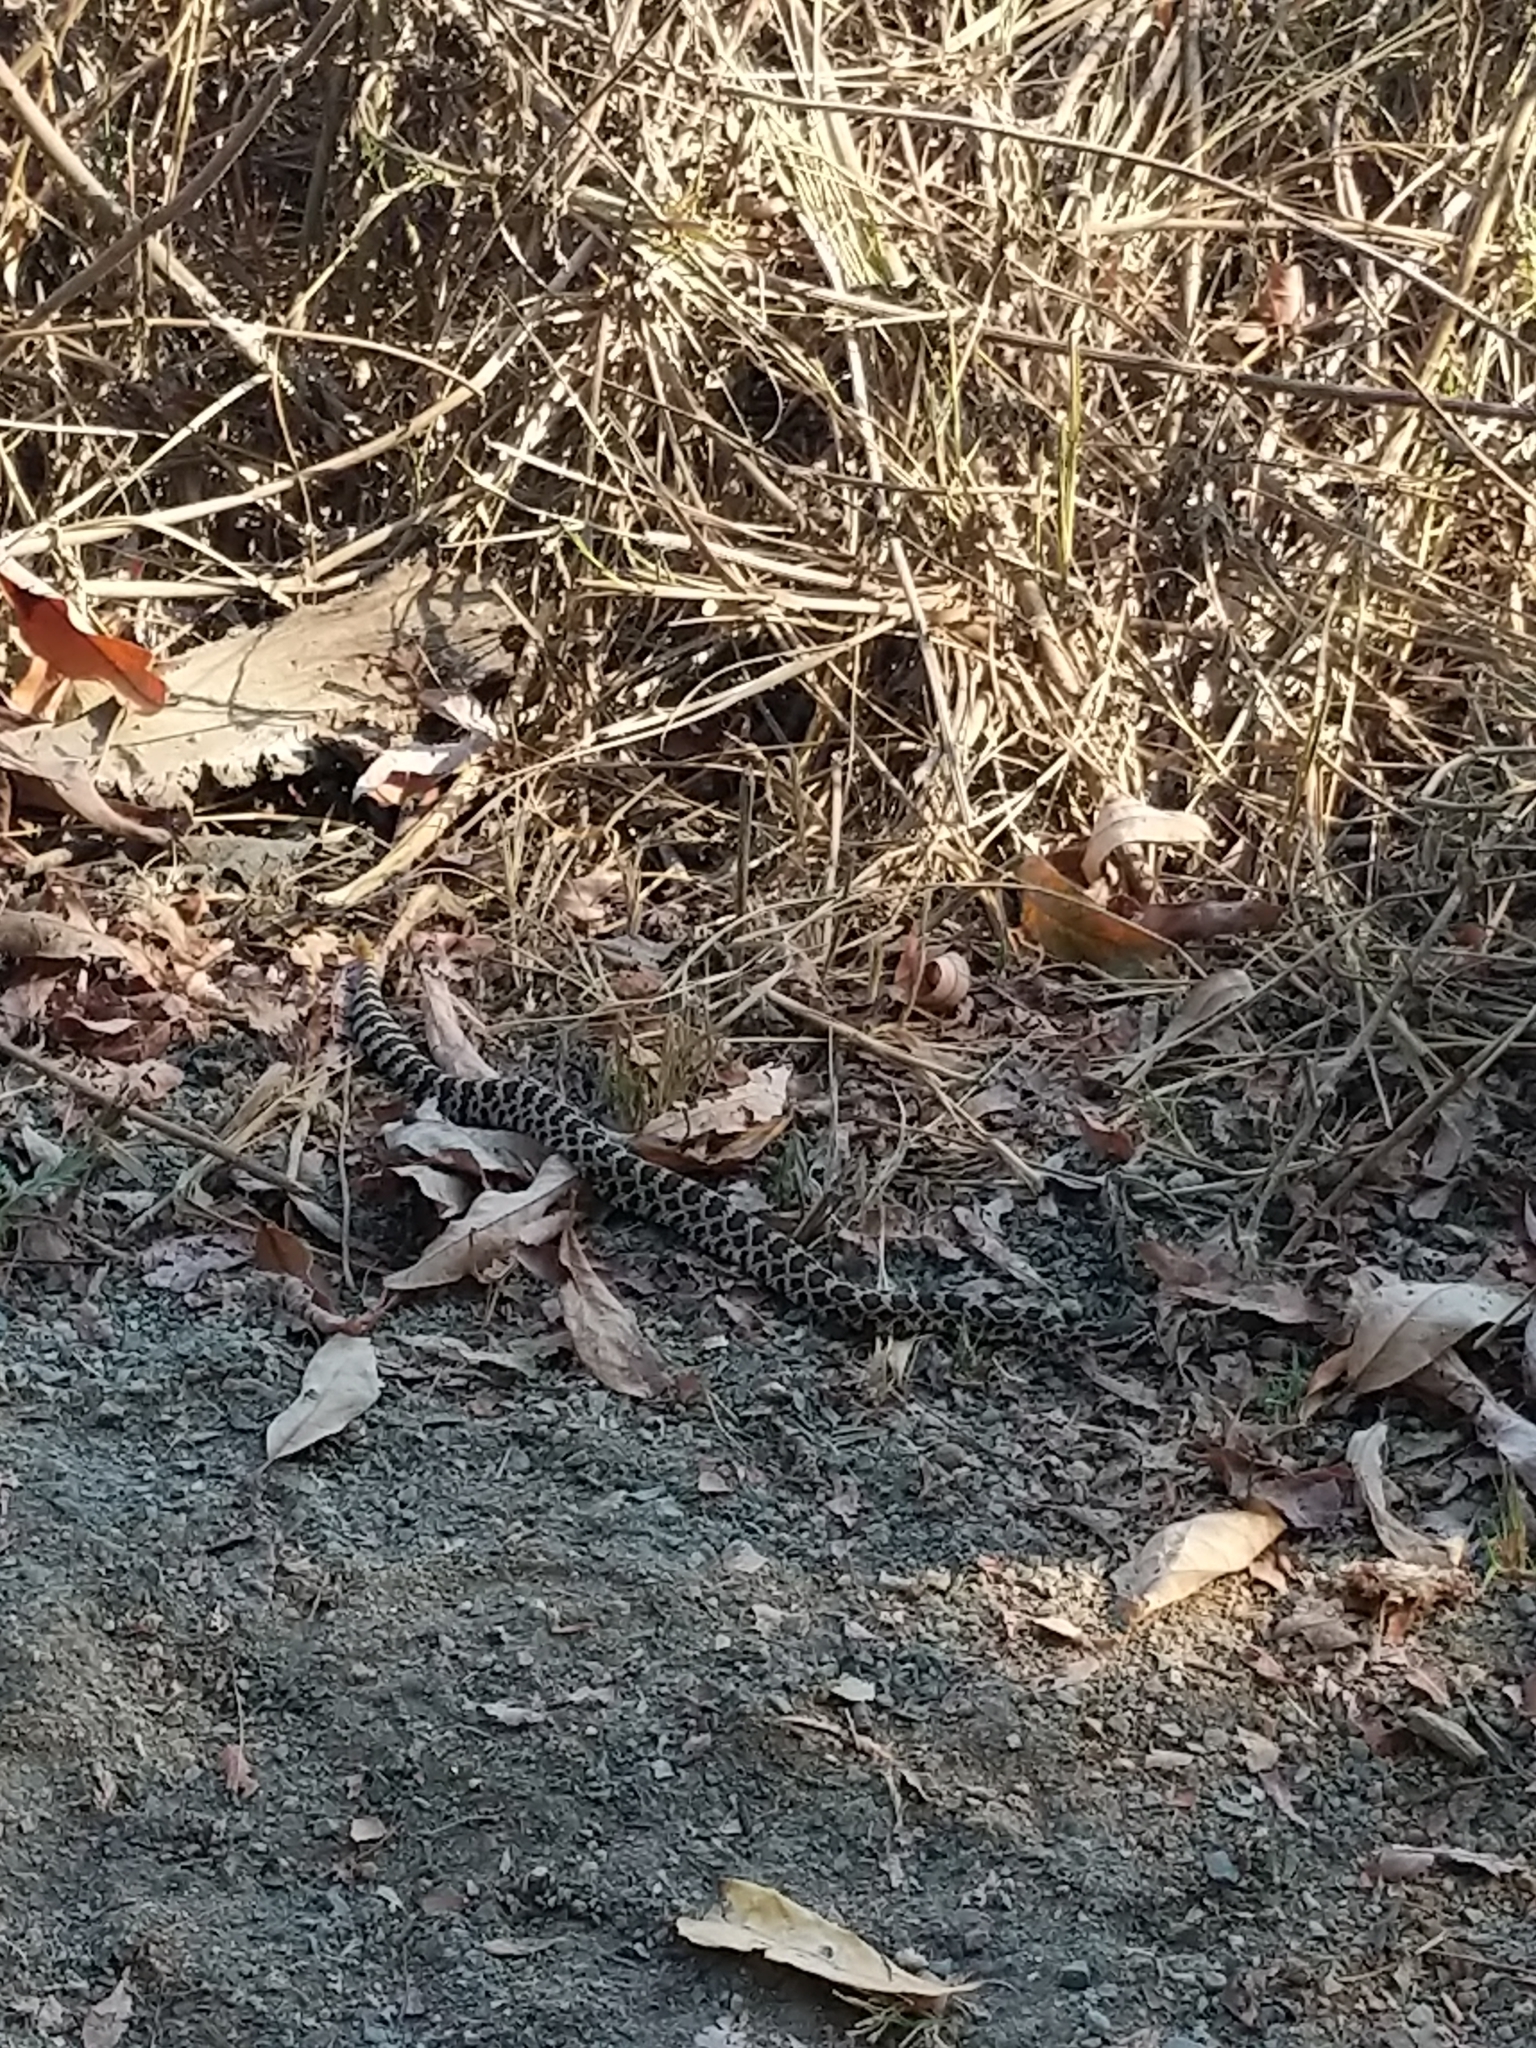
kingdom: Animalia
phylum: Chordata
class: Squamata
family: Viperidae
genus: Crotalus
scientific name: Crotalus oreganus
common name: Abyssus
